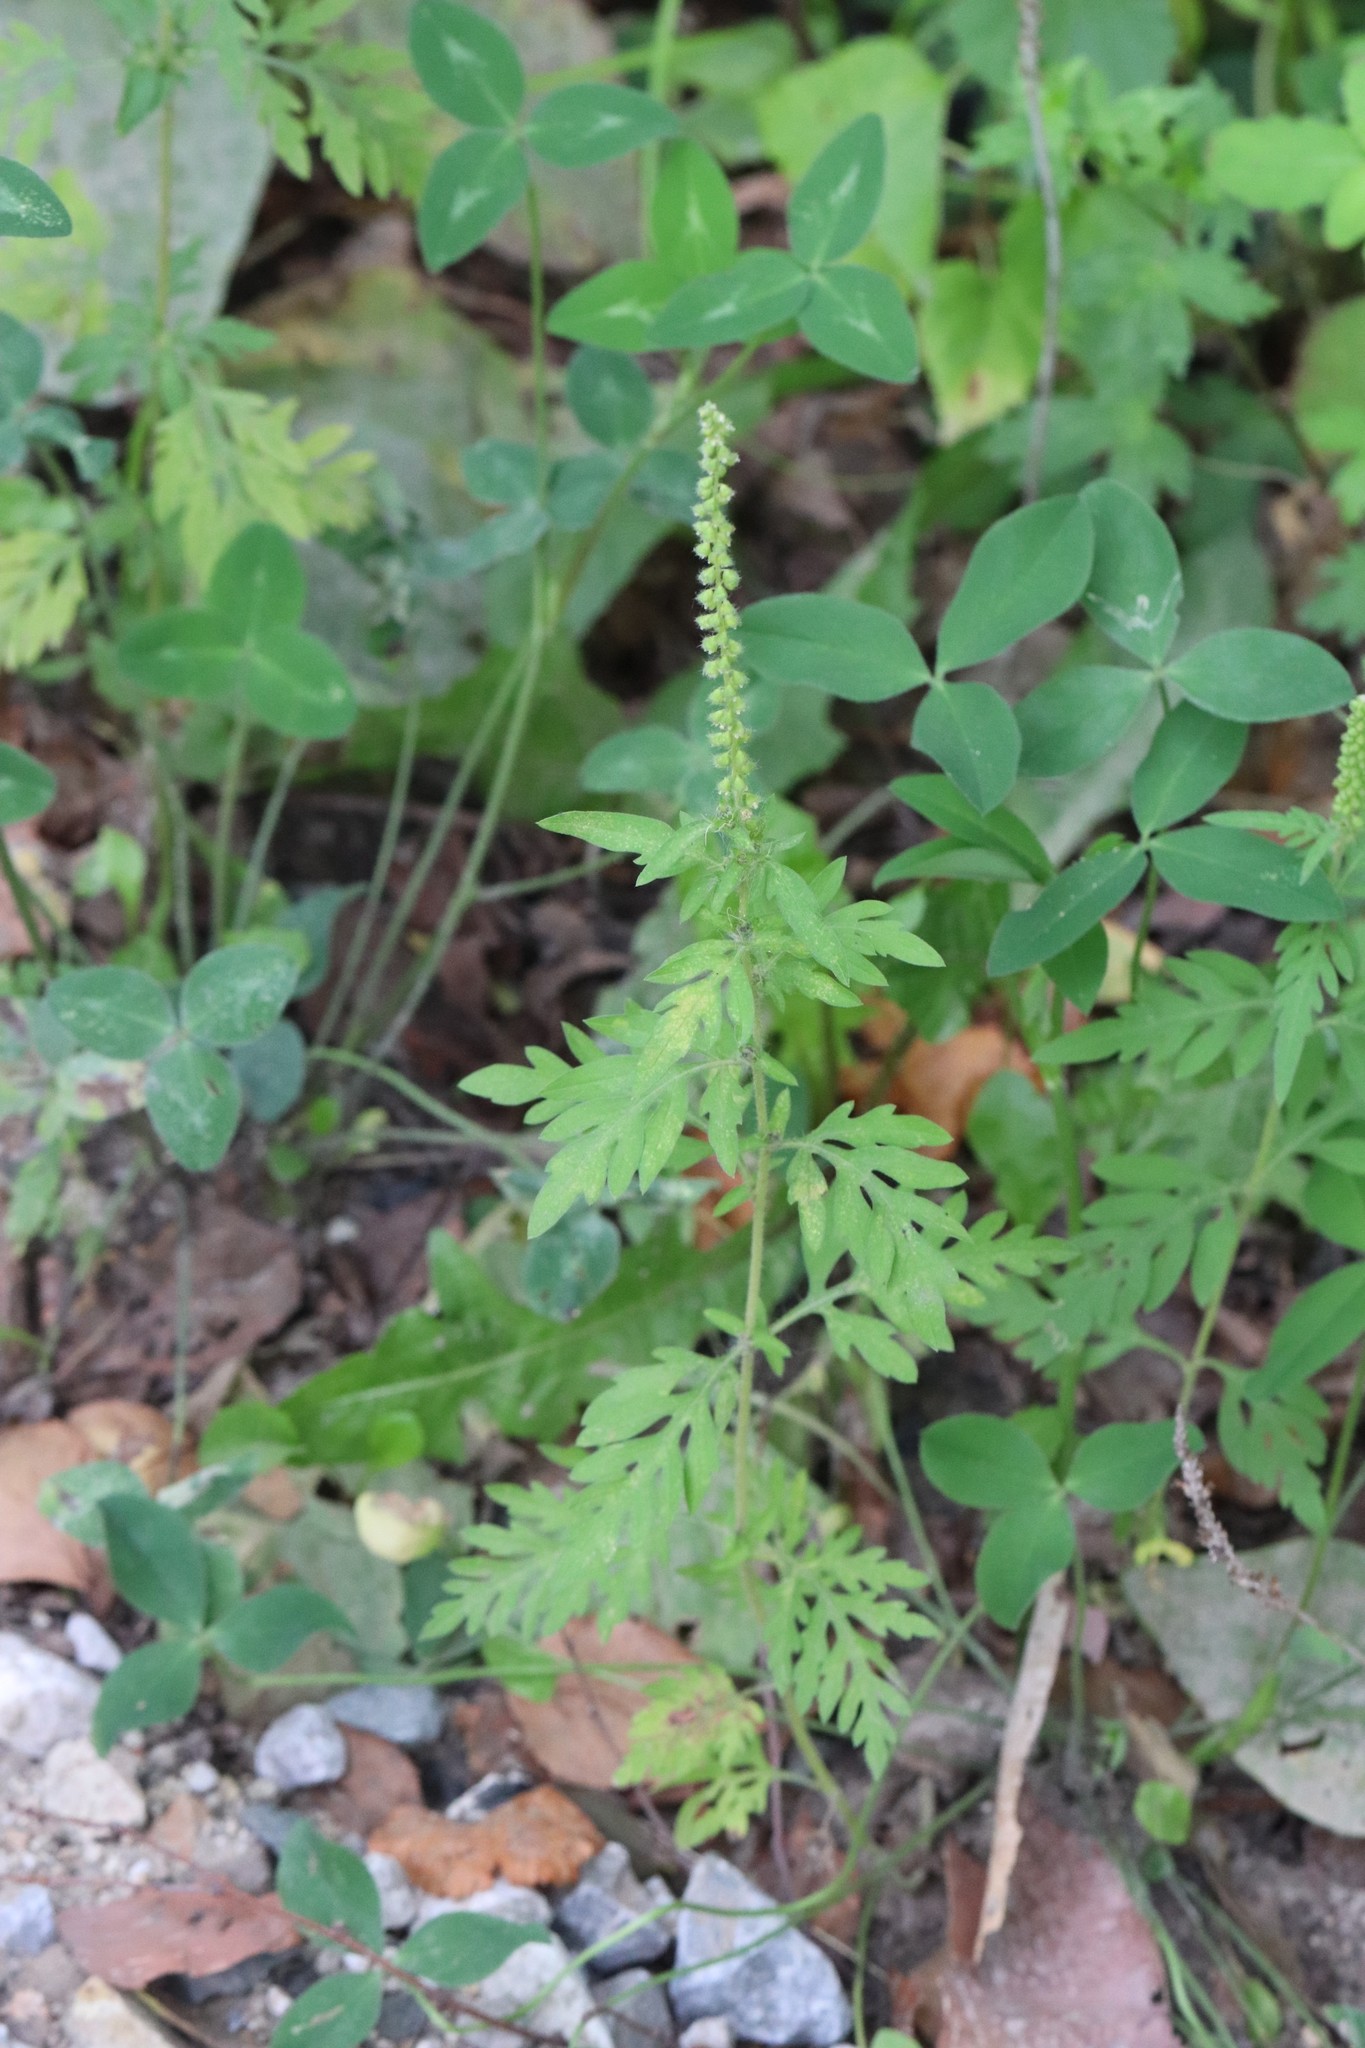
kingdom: Plantae
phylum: Tracheophyta
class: Magnoliopsida
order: Asterales
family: Asteraceae
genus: Ambrosia
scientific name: Ambrosia artemisiifolia
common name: Annual ragweed
